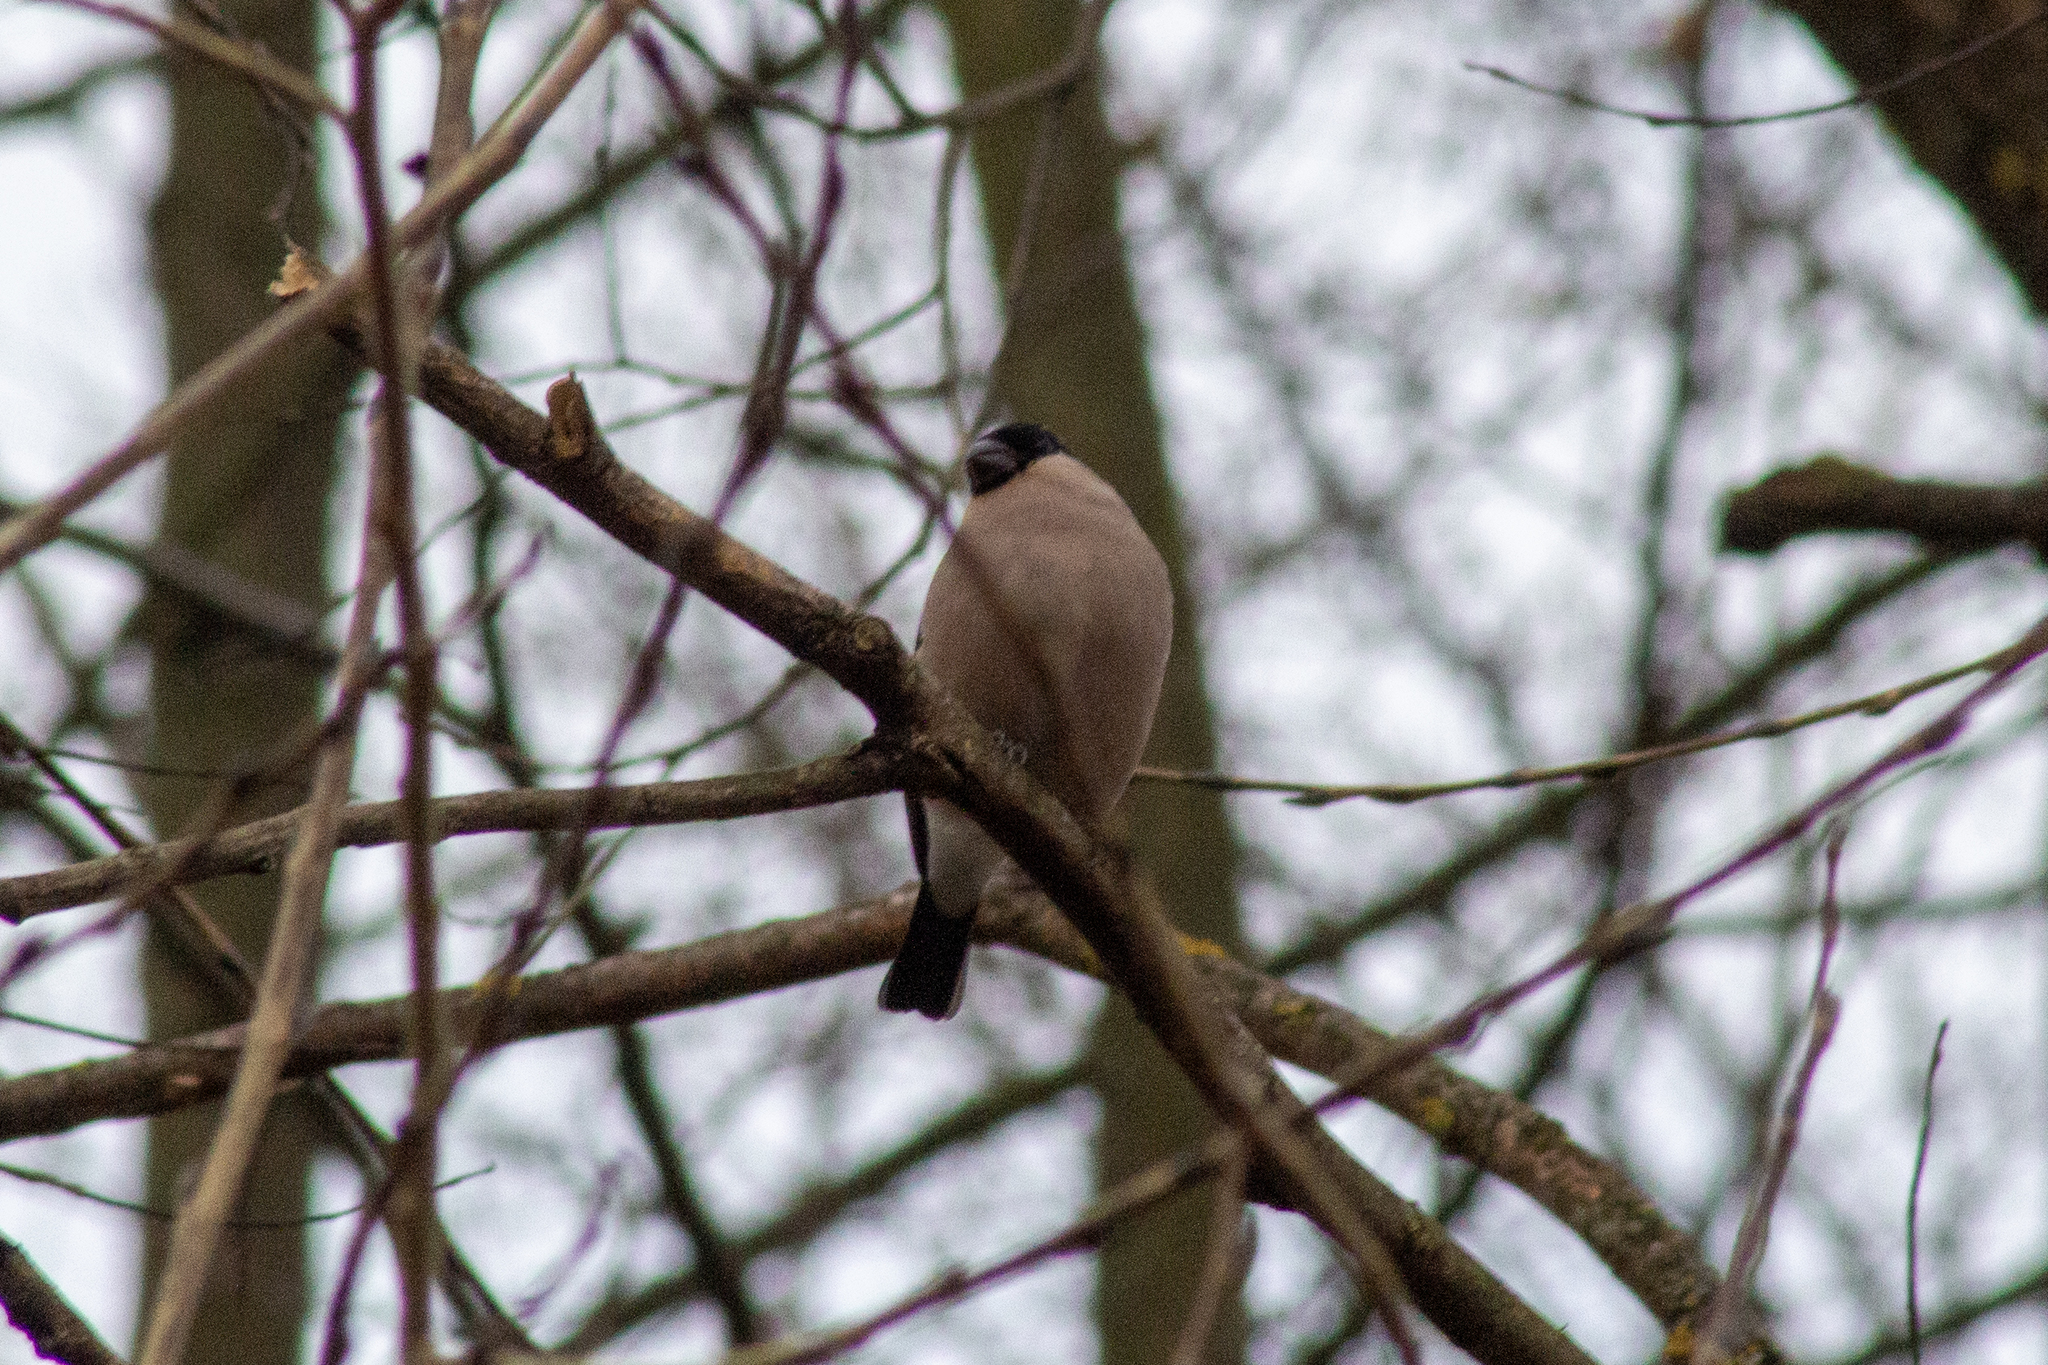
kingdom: Animalia
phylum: Chordata
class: Aves
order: Passeriformes
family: Fringillidae
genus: Pyrrhula
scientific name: Pyrrhula pyrrhula
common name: Eurasian bullfinch
